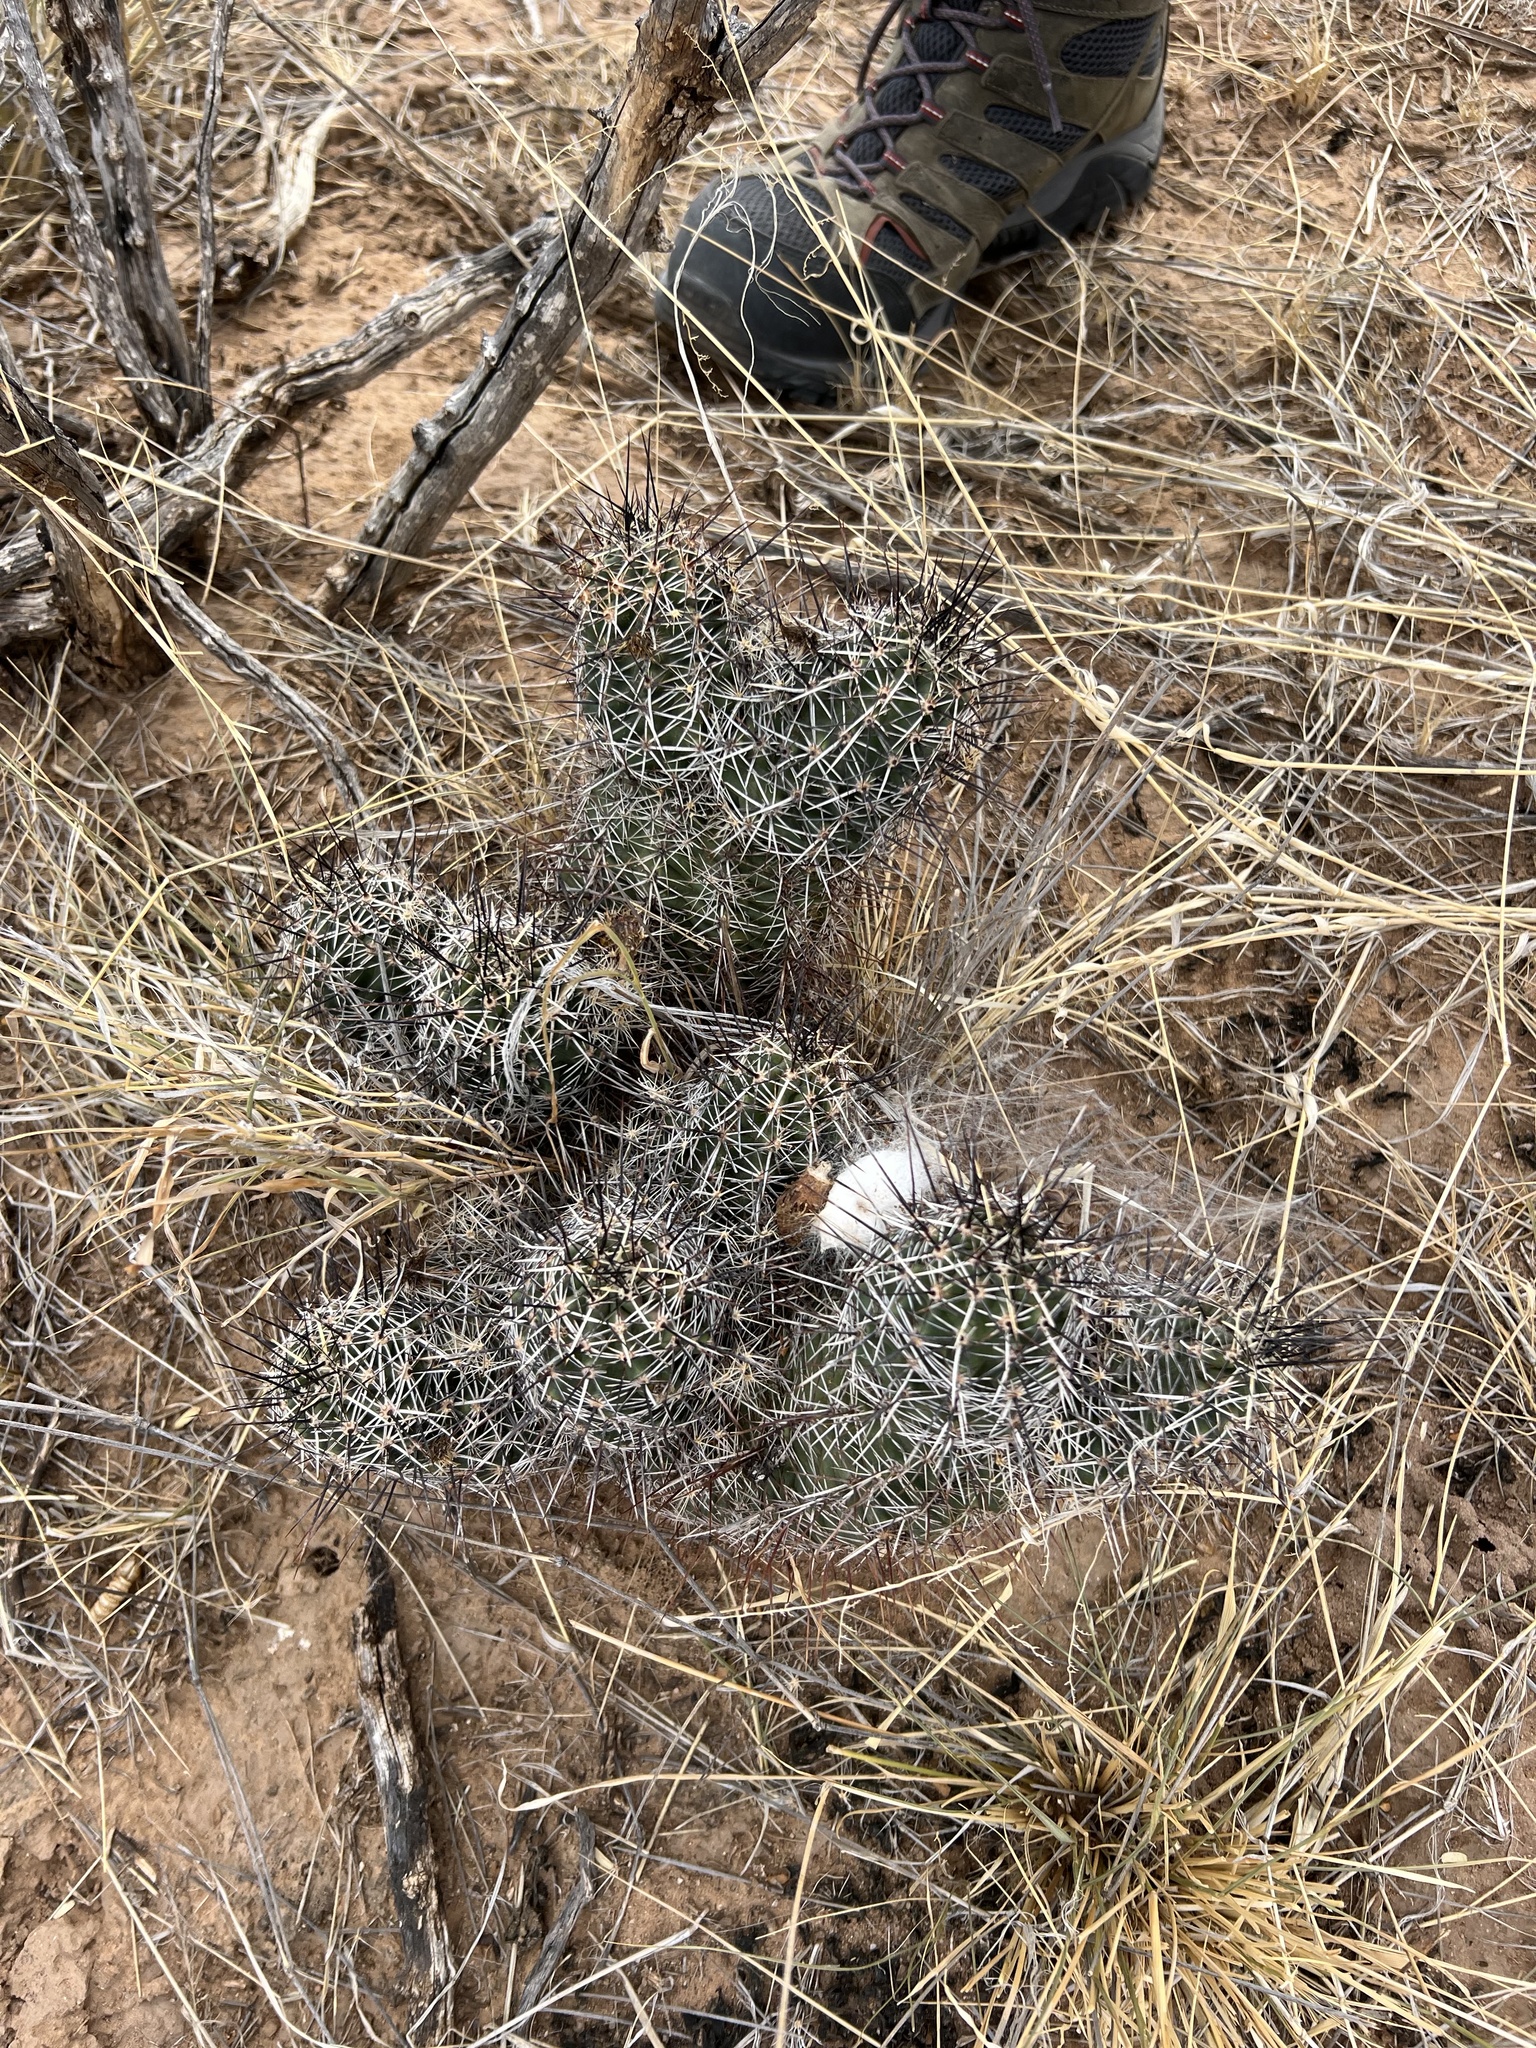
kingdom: Plantae
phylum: Tracheophyta
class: Magnoliopsida
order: Caryophyllales
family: Cactaceae
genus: Echinocereus
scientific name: Echinocereus fasciculatus
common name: Bundle hedgehog
